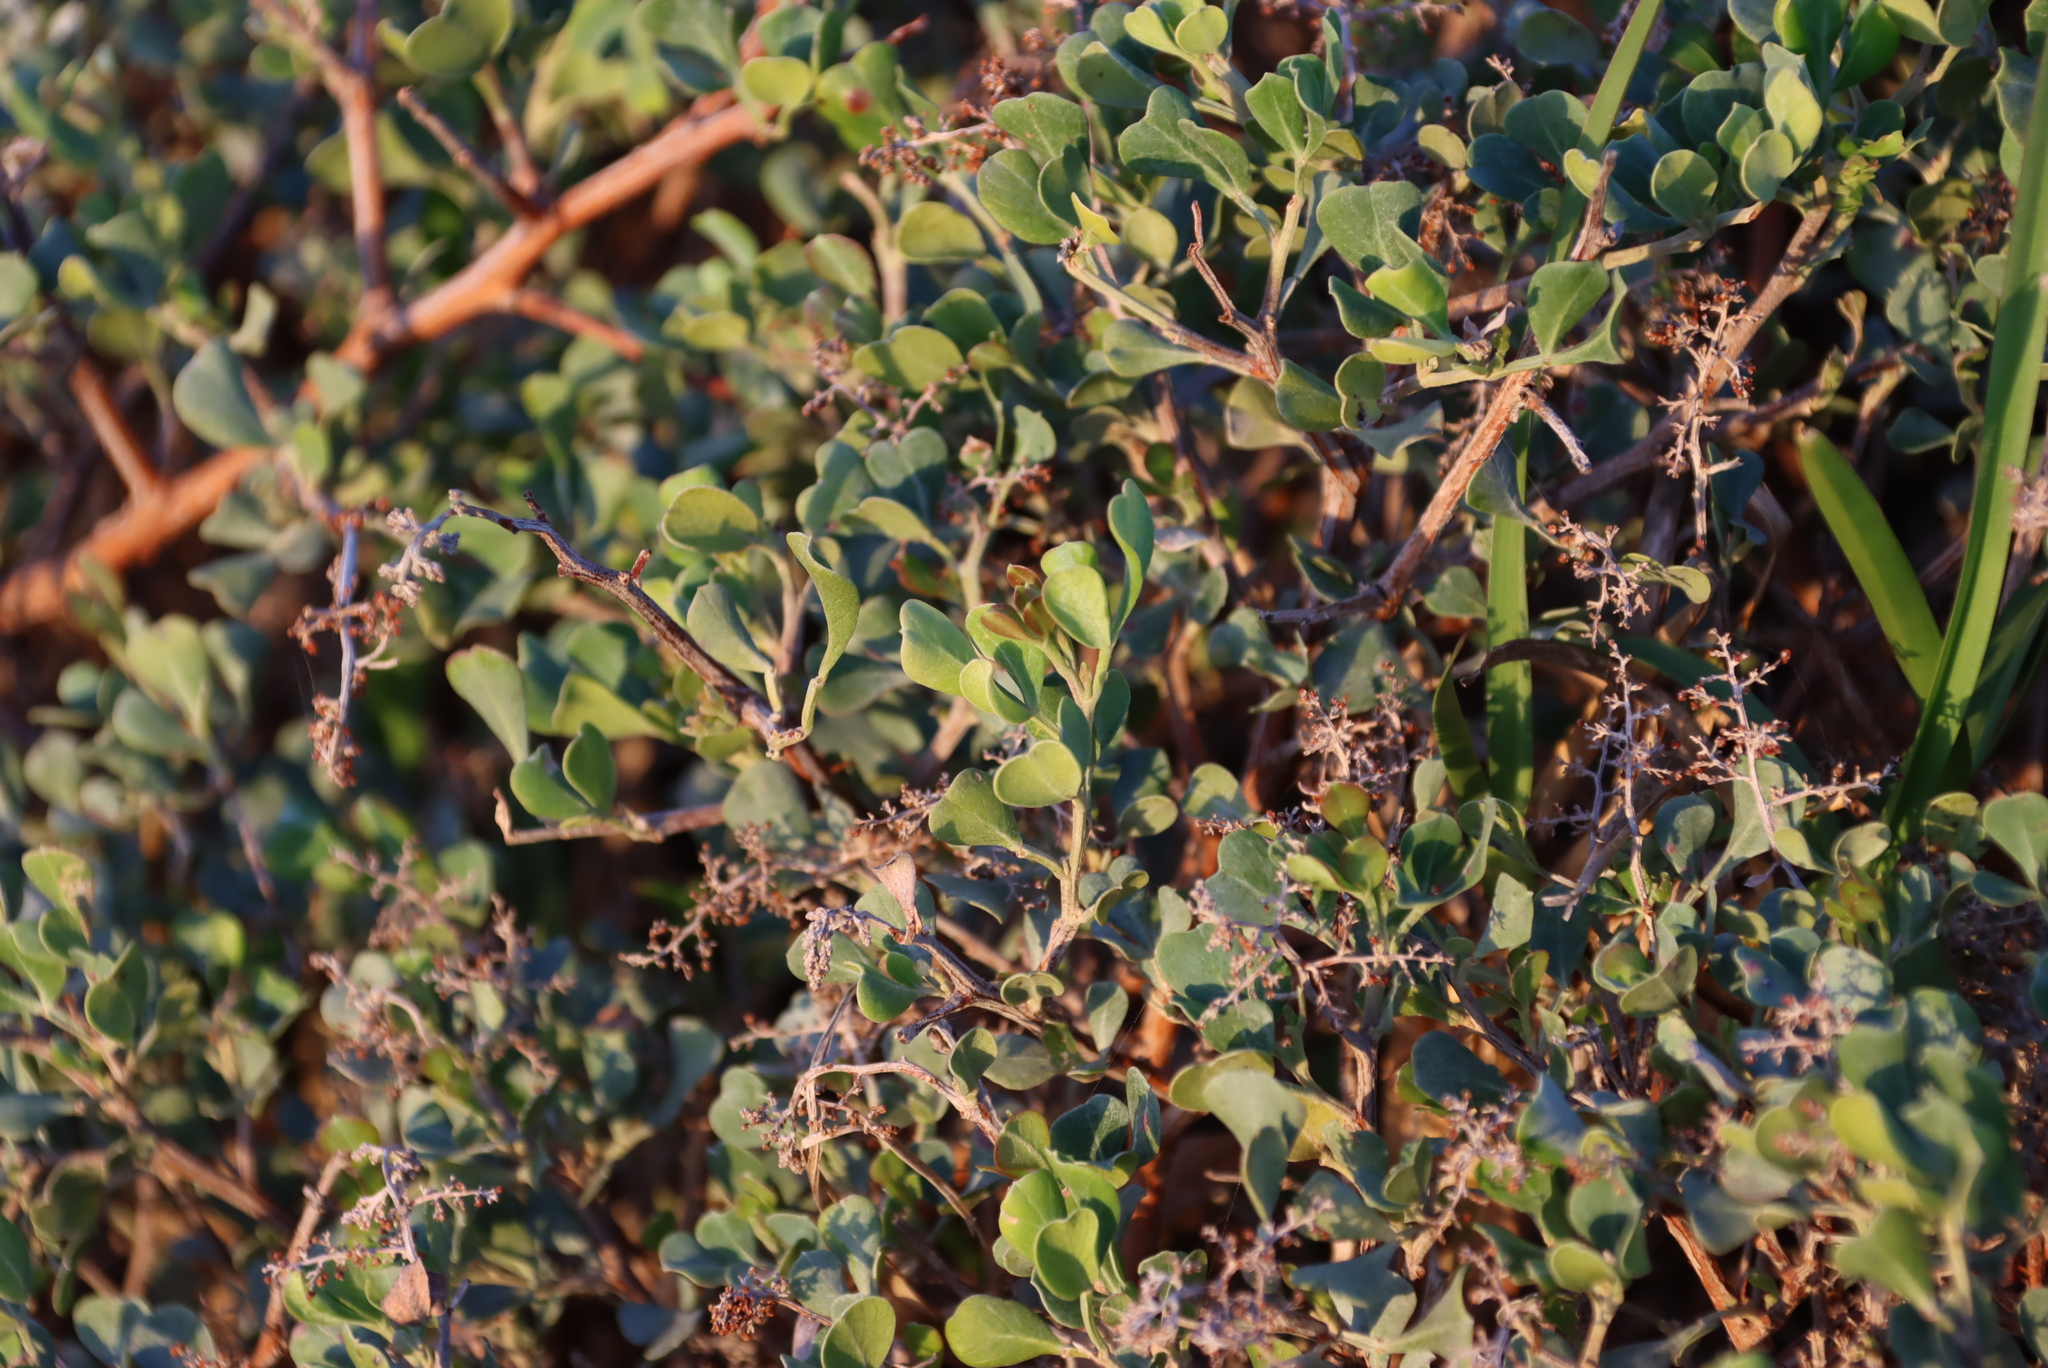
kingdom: Plantae
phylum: Tracheophyta
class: Magnoliopsida
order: Sapindales
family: Anacardiaceae
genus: Searsia
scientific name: Searsia glauca
